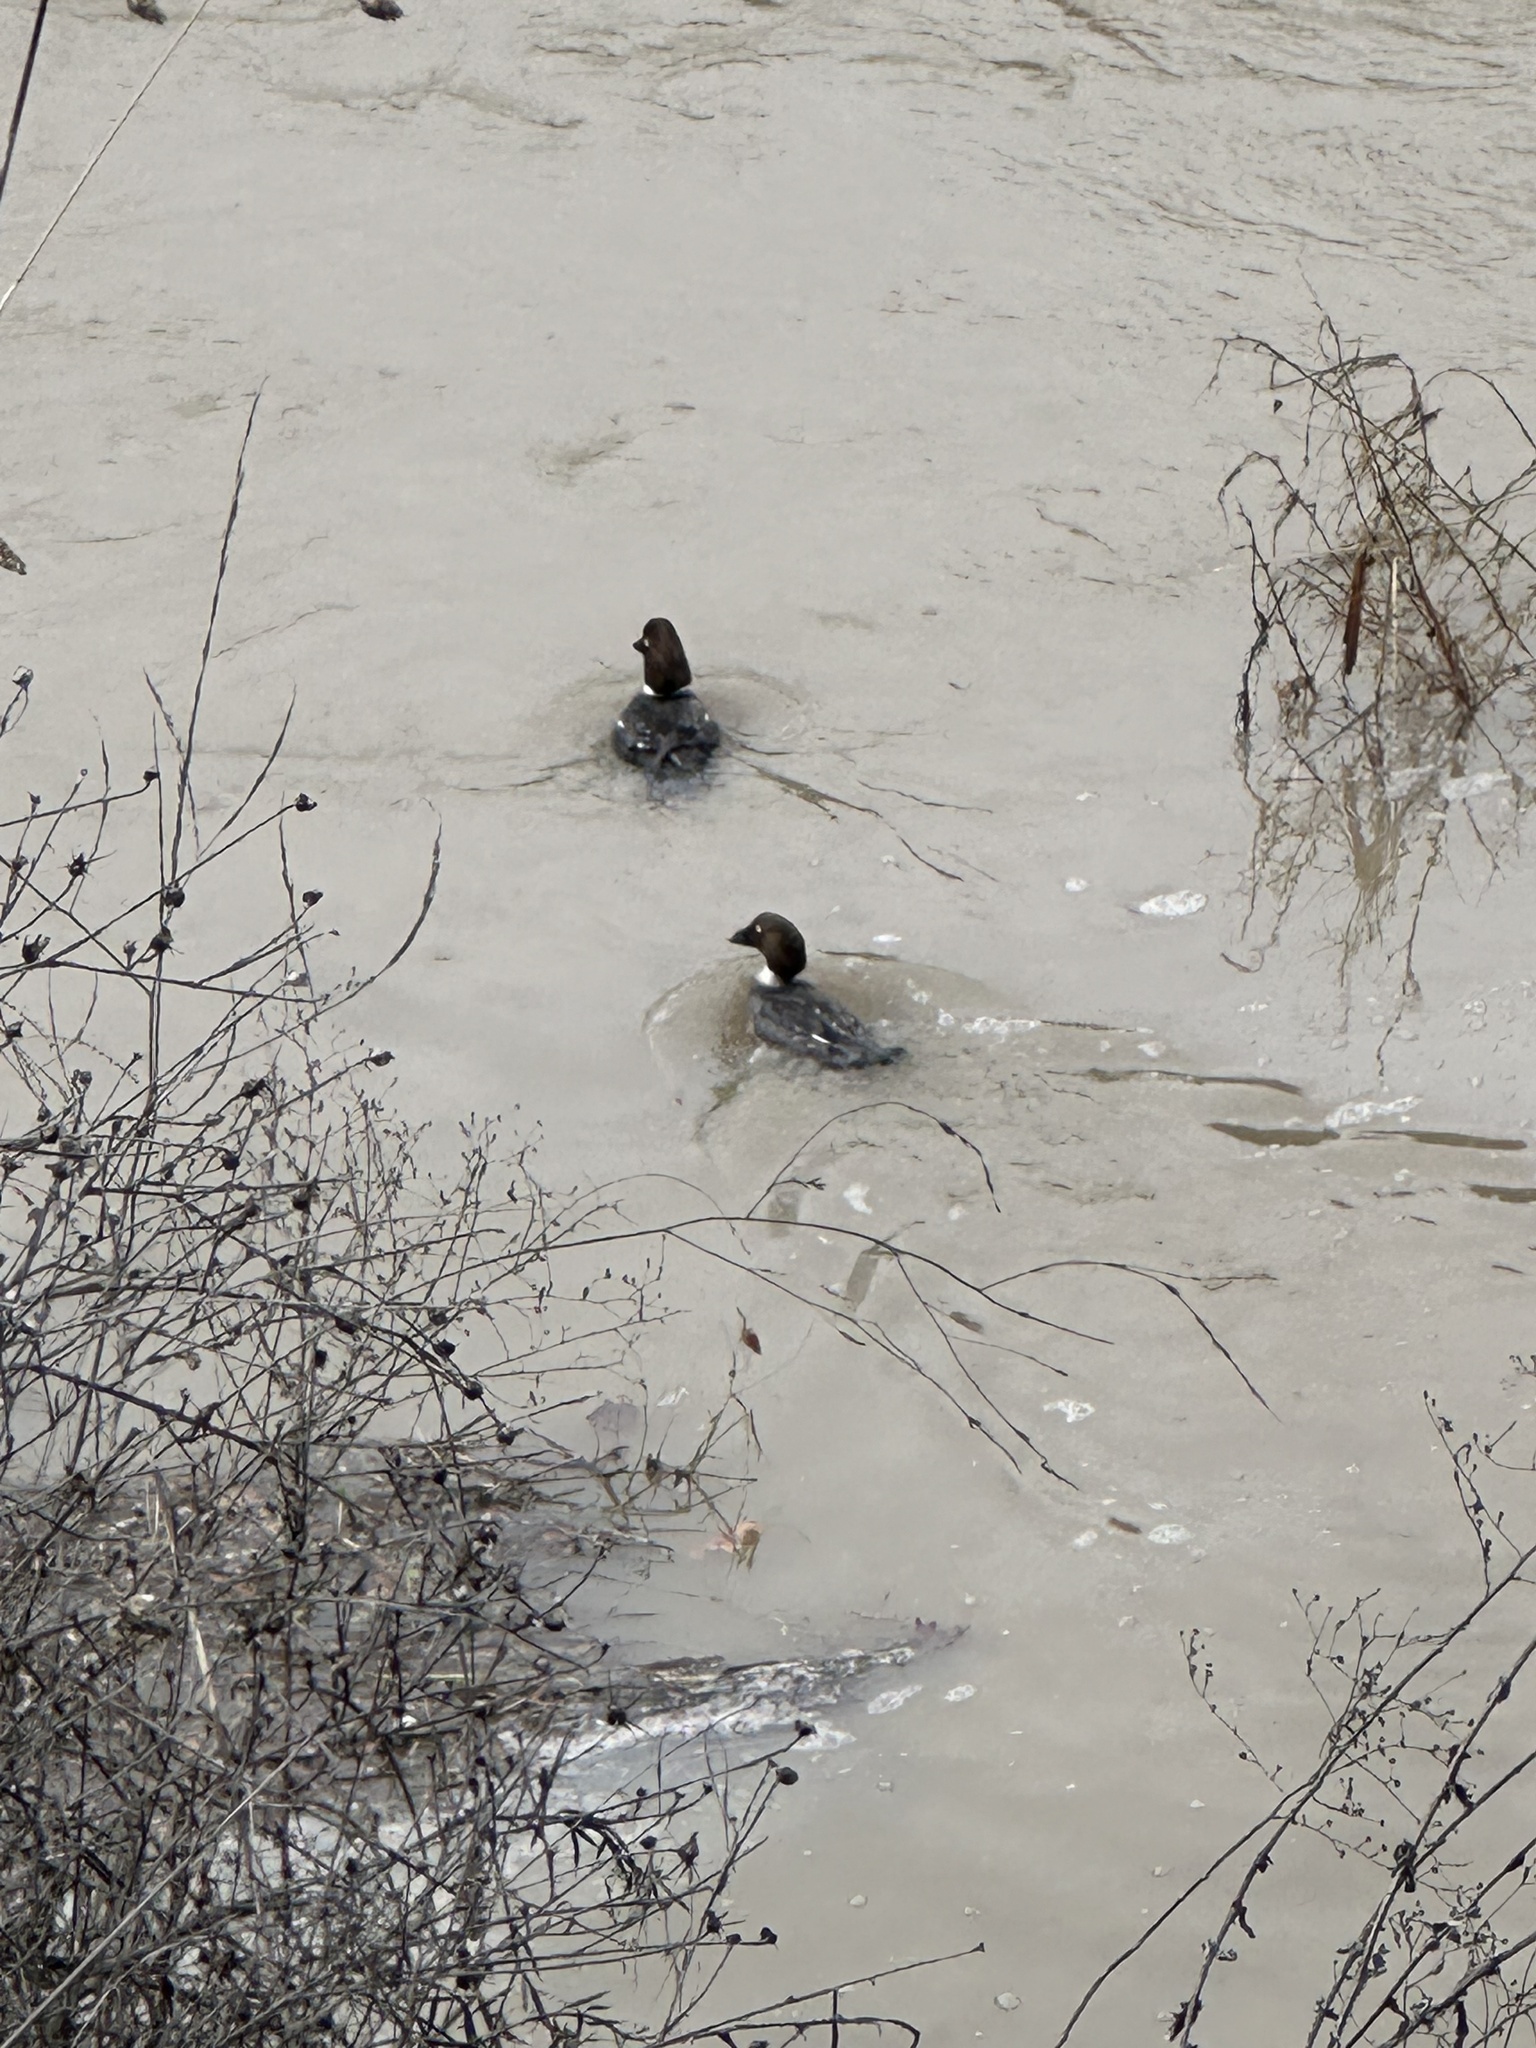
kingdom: Animalia
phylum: Chordata
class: Aves
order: Anseriformes
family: Anatidae
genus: Bucephala
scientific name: Bucephala clangula
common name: Common goldeneye
